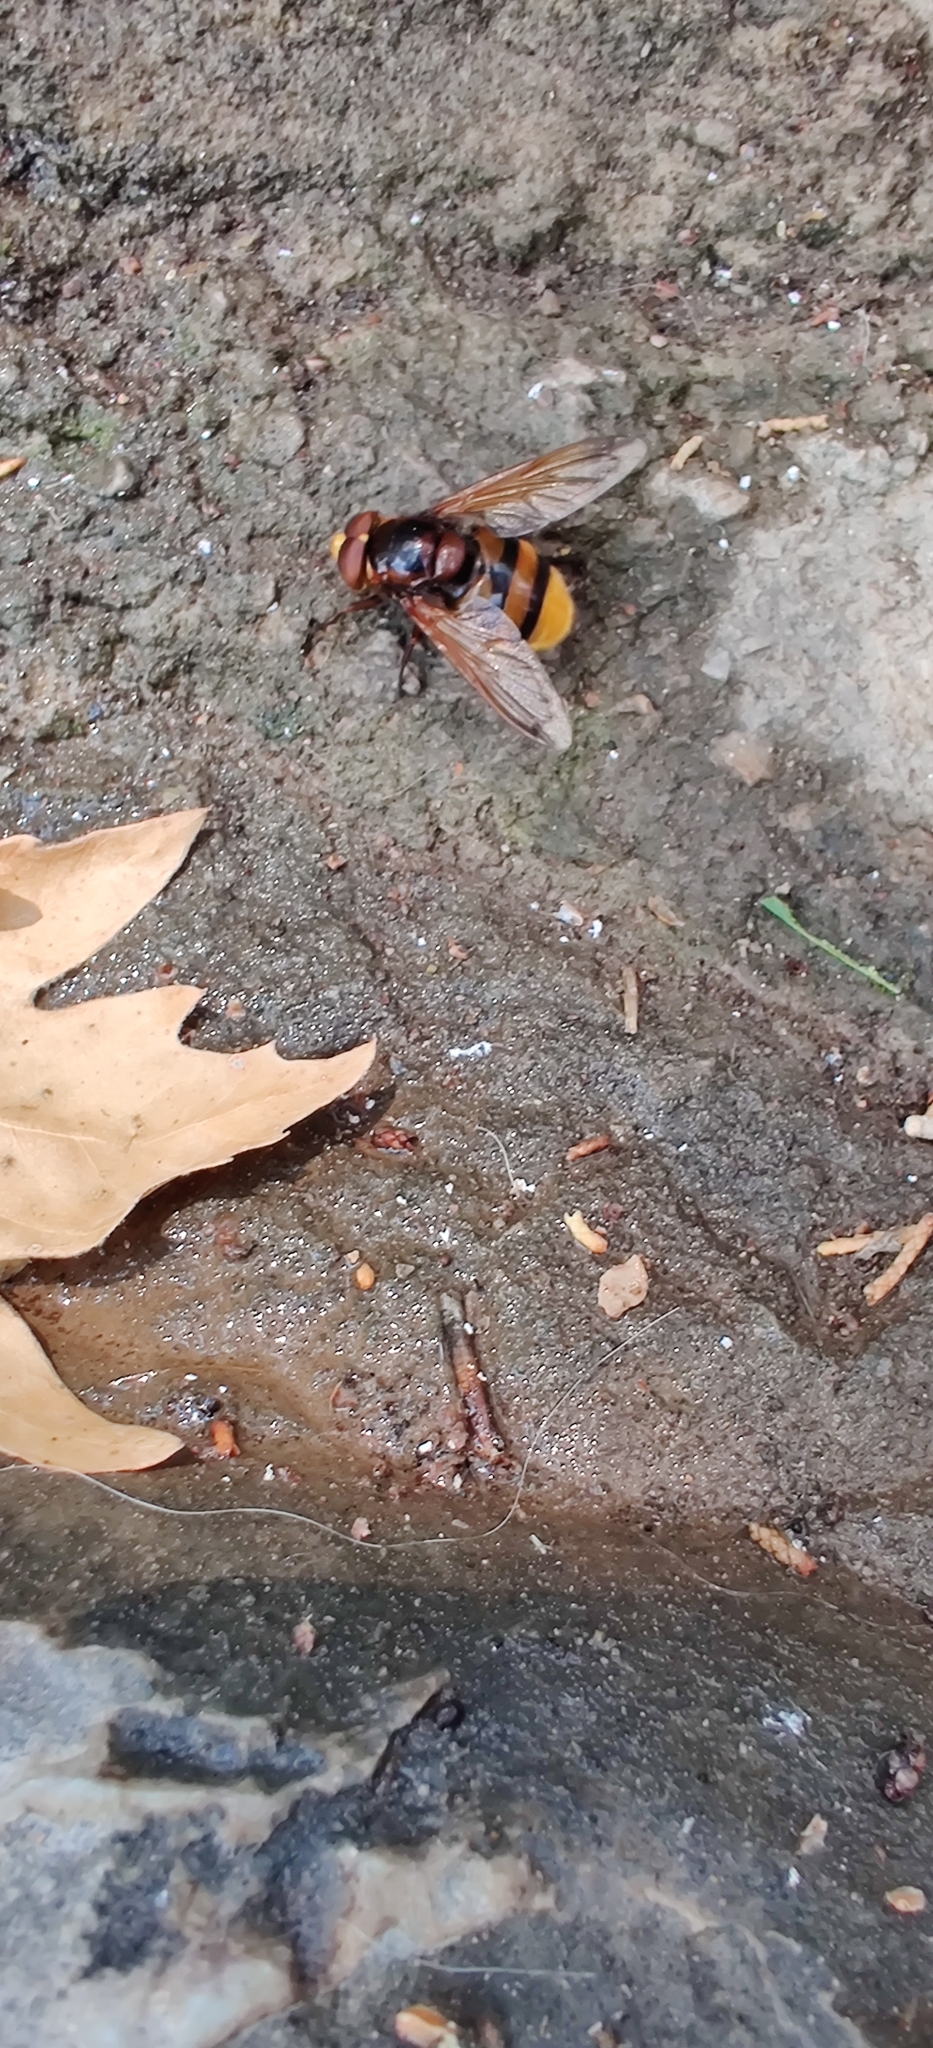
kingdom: Animalia
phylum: Arthropoda
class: Insecta
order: Diptera
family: Syrphidae
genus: Volucella
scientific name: Volucella zonaria
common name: Hornet hoverfly
